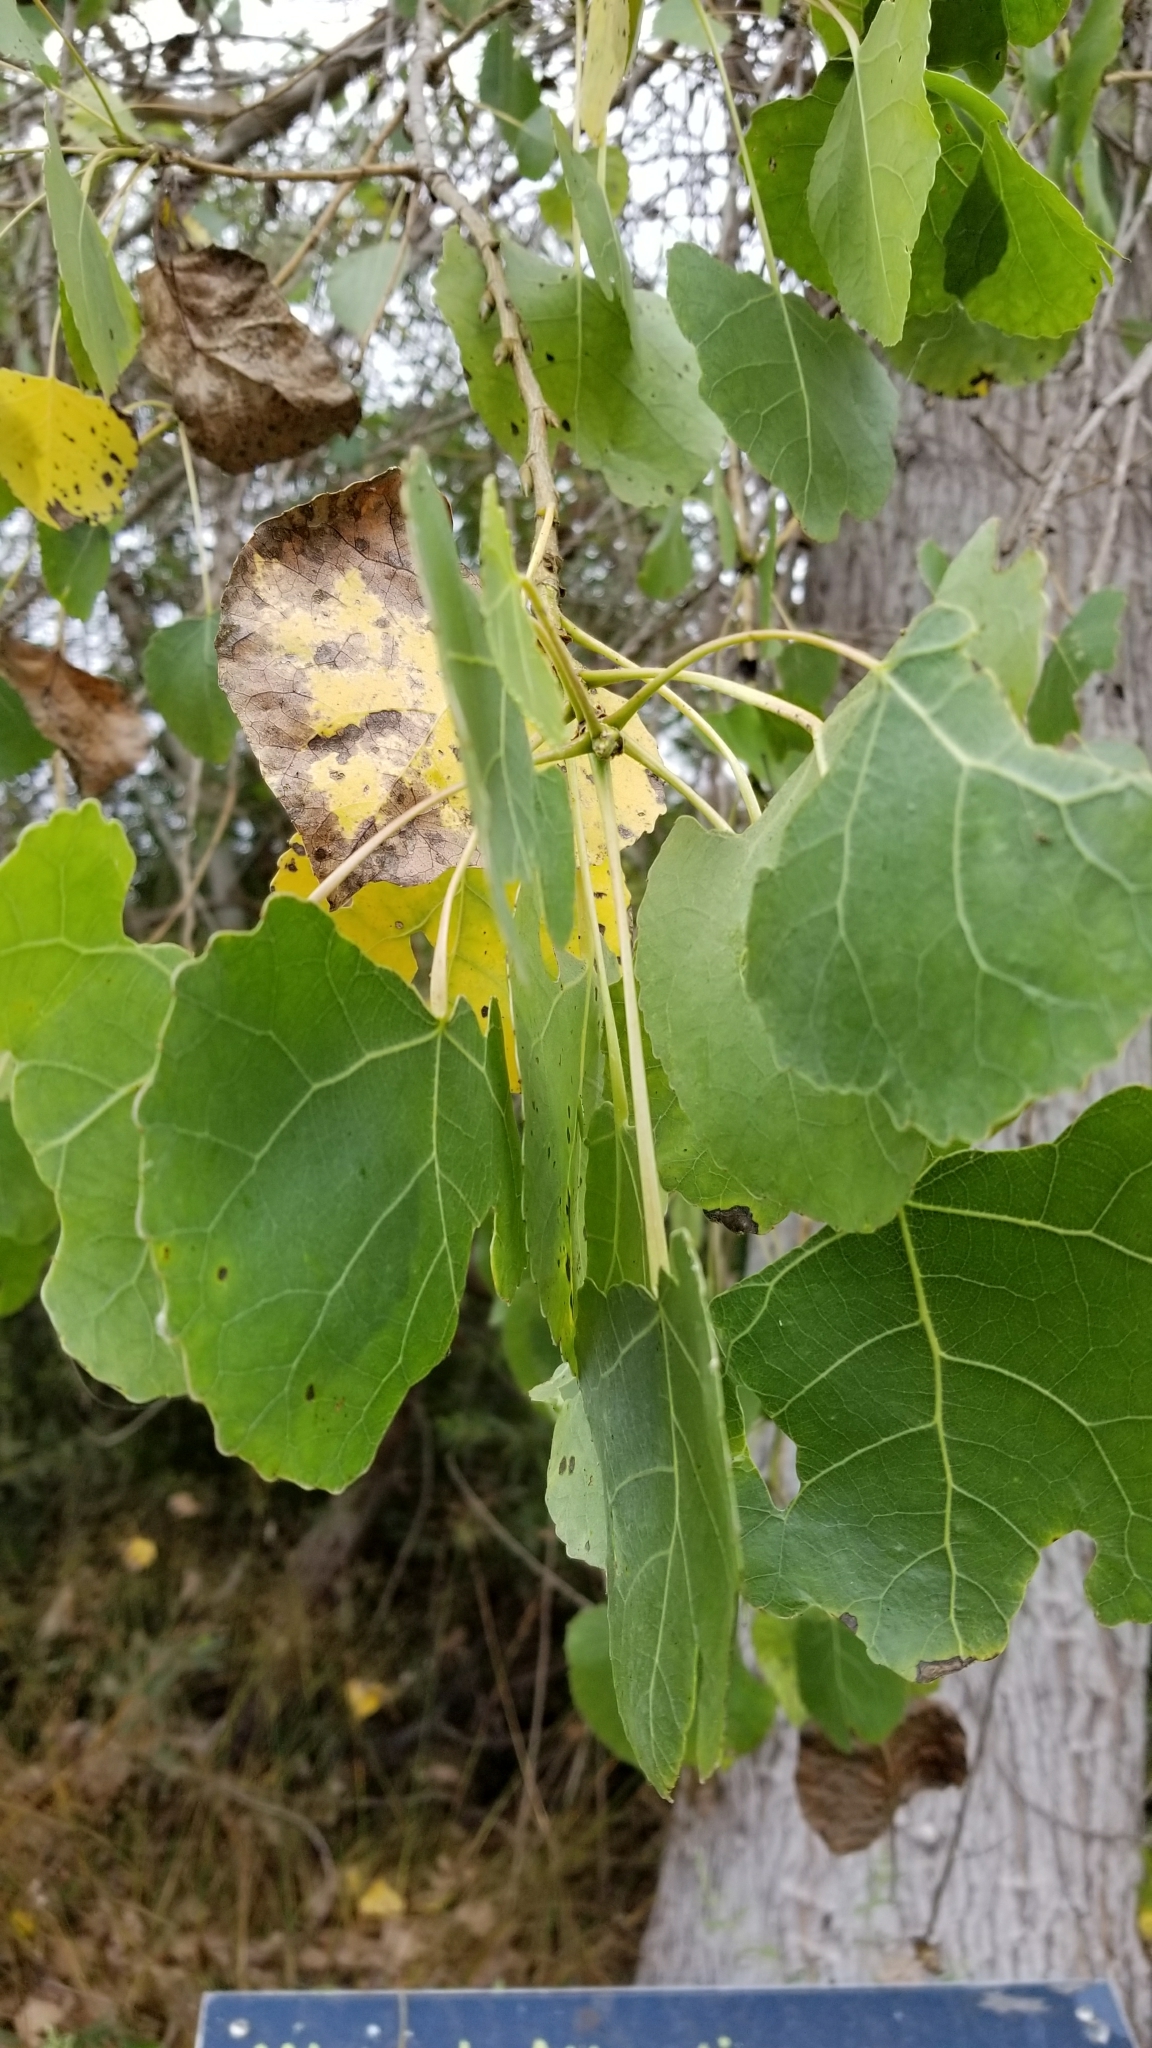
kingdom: Plantae
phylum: Tracheophyta
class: Magnoliopsida
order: Malpighiales
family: Salicaceae
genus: Populus
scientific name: Populus fremontii
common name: Fremont's cottonwood
